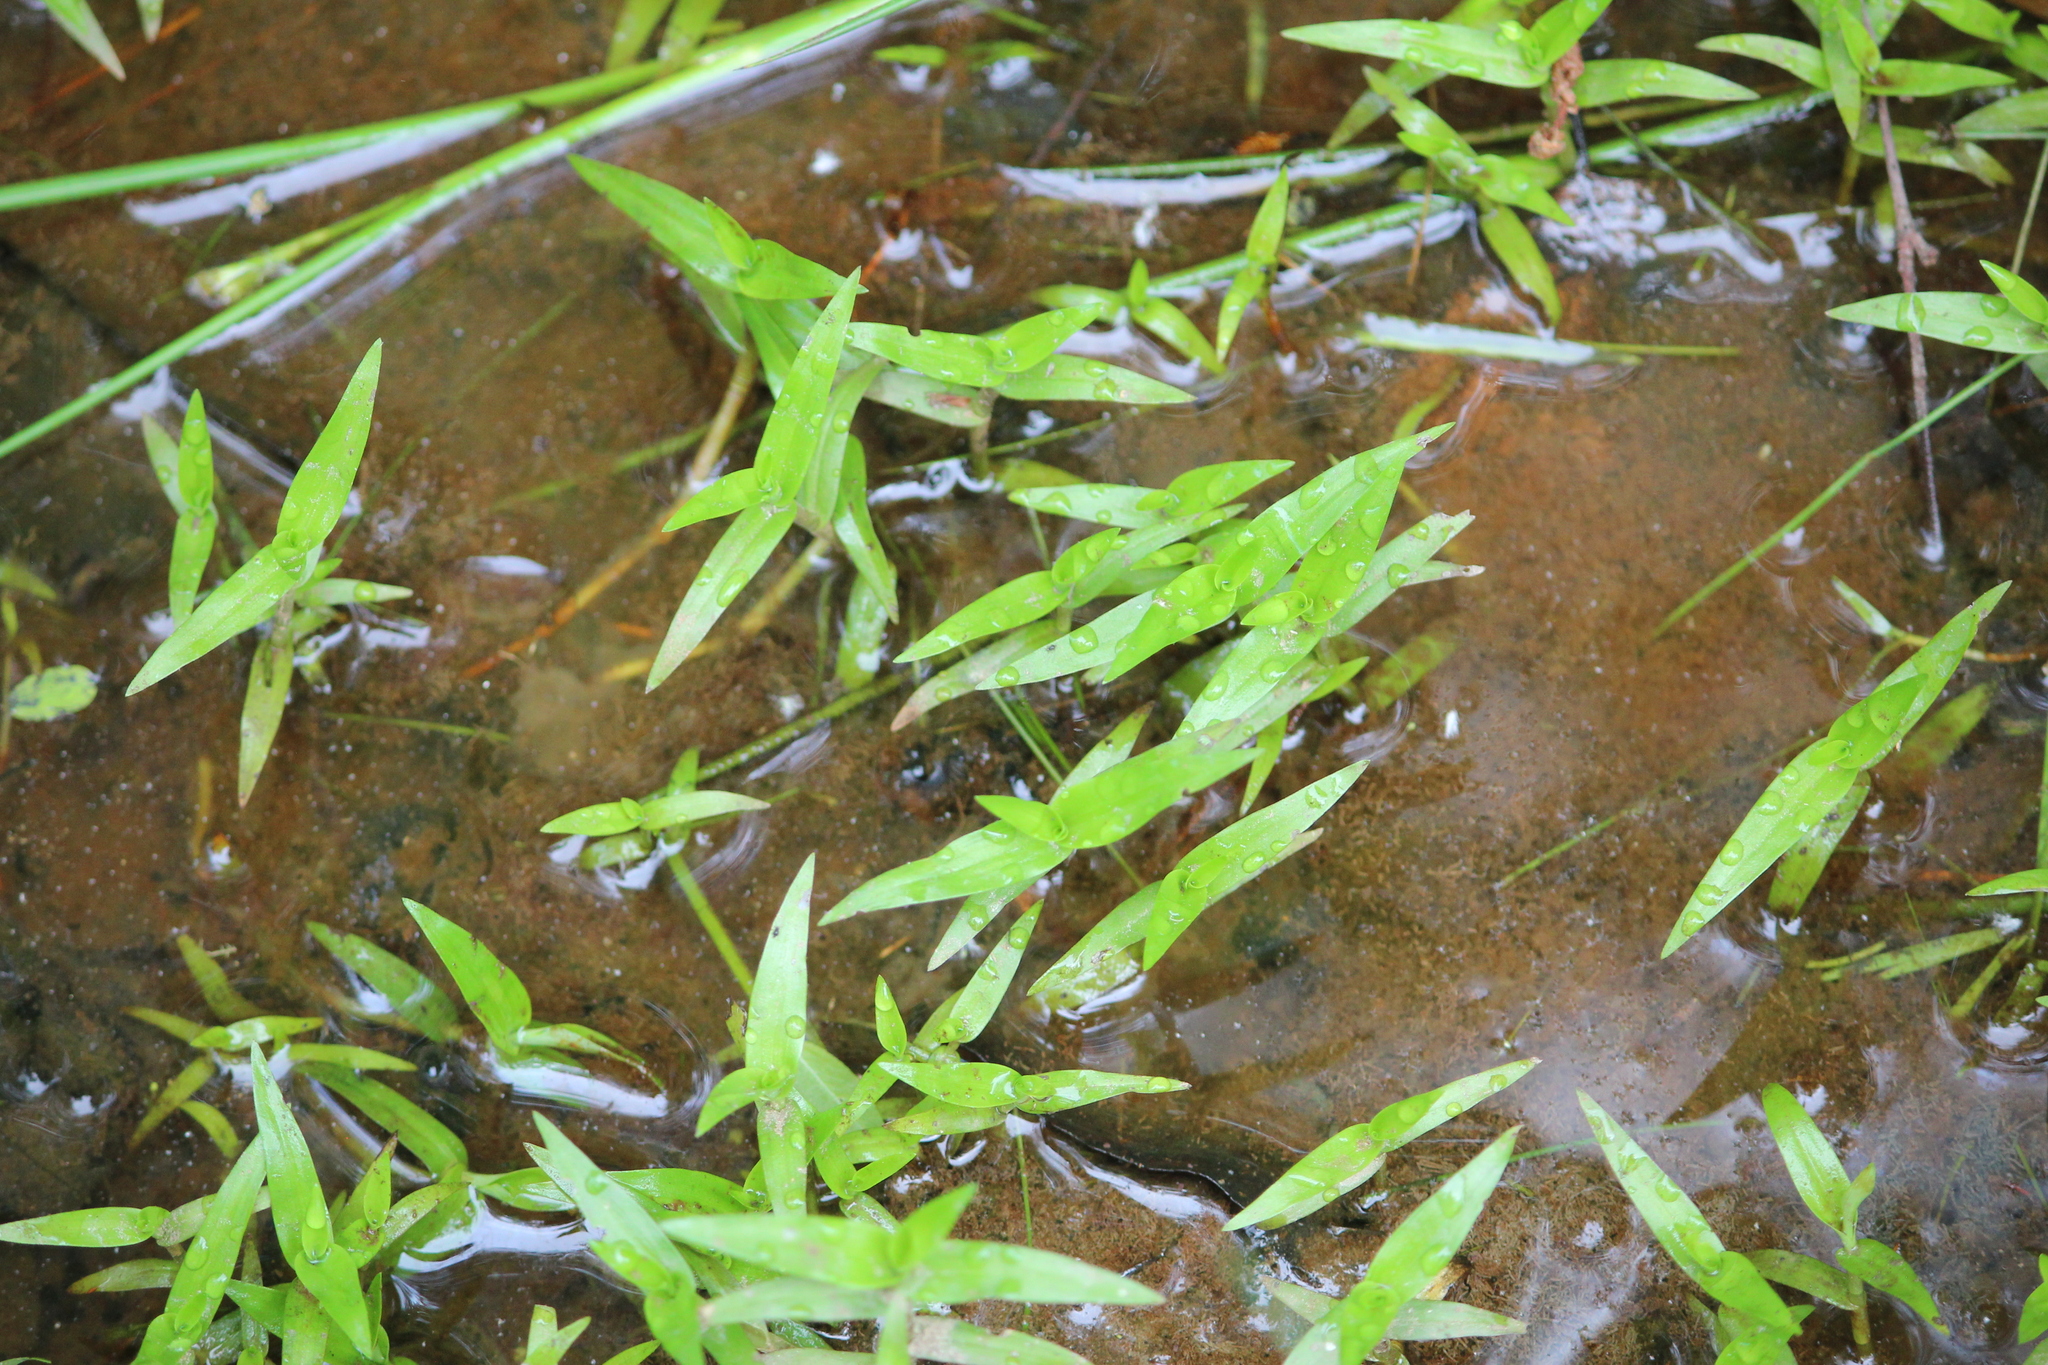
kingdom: Plantae
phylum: Tracheophyta
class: Liliopsida
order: Commelinales
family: Commelinaceae
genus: Murdannia
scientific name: Murdannia keisak
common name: Wartremoving herb
